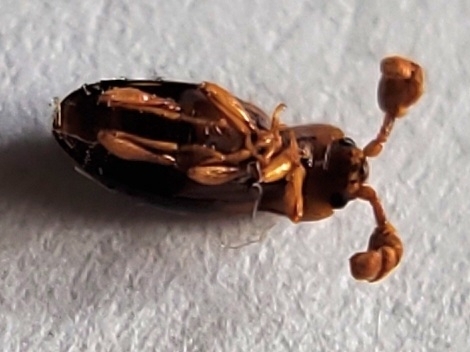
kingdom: Animalia
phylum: Arthropoda
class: Insecta
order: Coleoptera
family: Endomychidae
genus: Phymaphora
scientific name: Phymaphora pulchella
